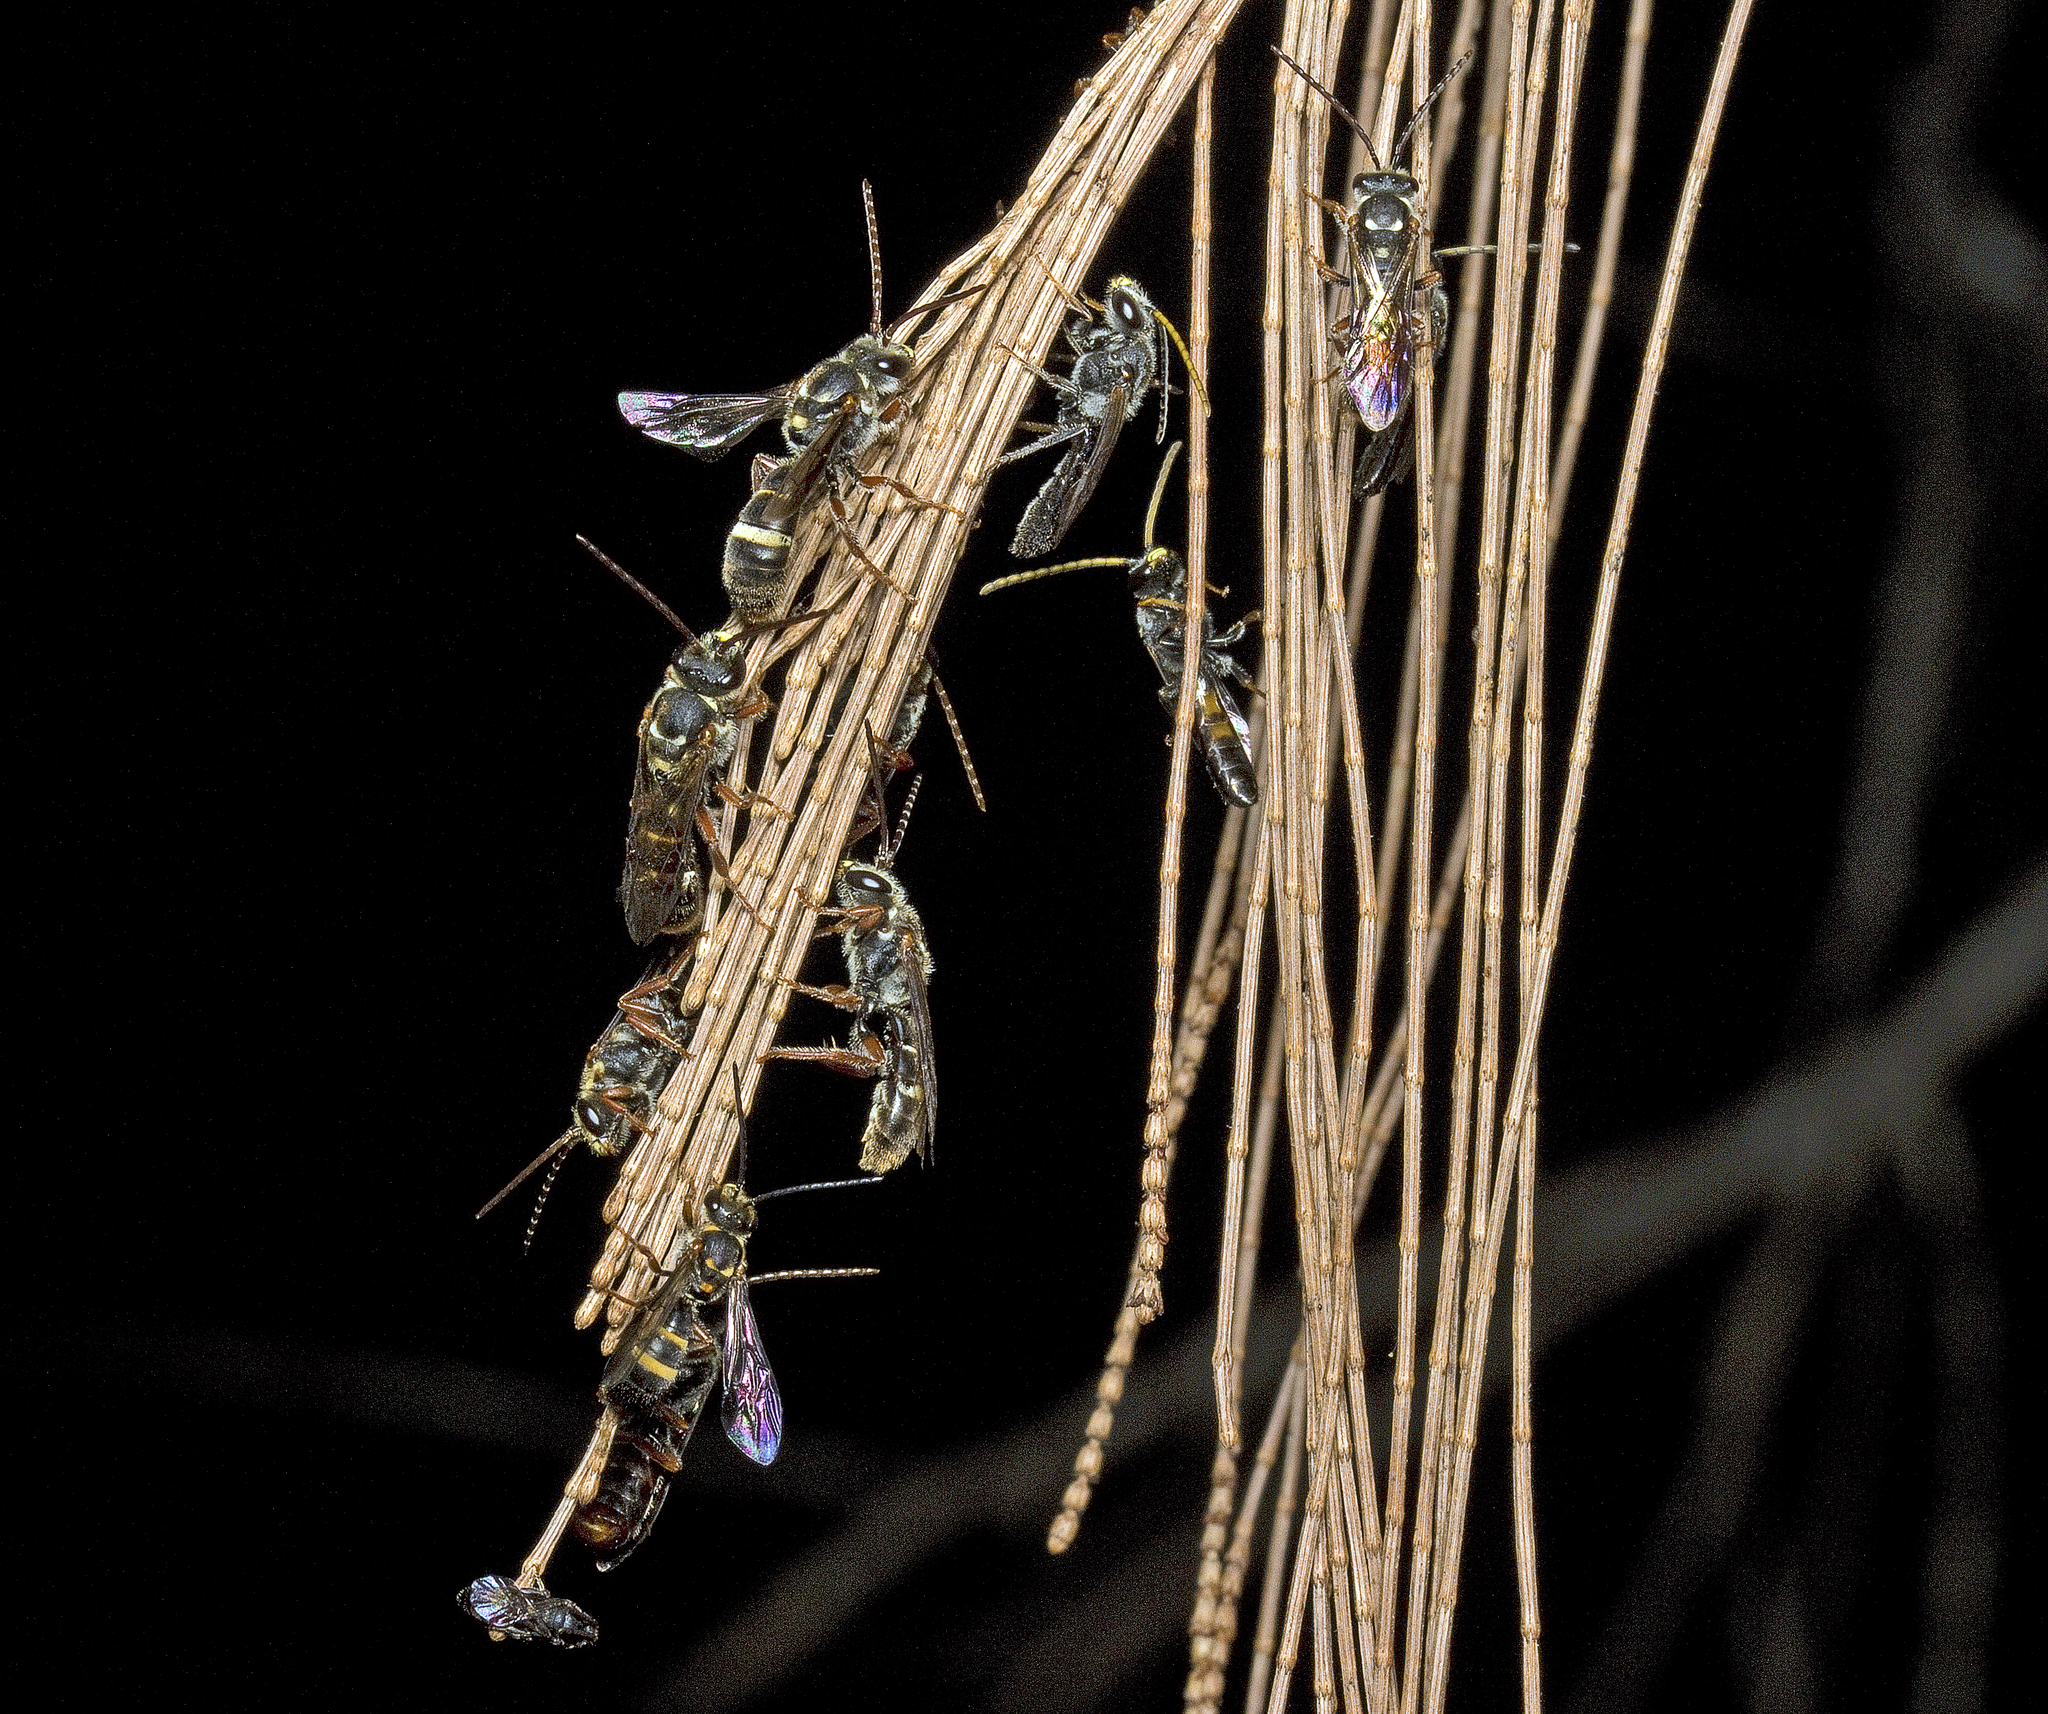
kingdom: Animalia
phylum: Arthropoda
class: Insecta
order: Hymenoptera
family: Halictidae
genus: Lasioglossum
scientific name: Lasioglossum peraustrale
